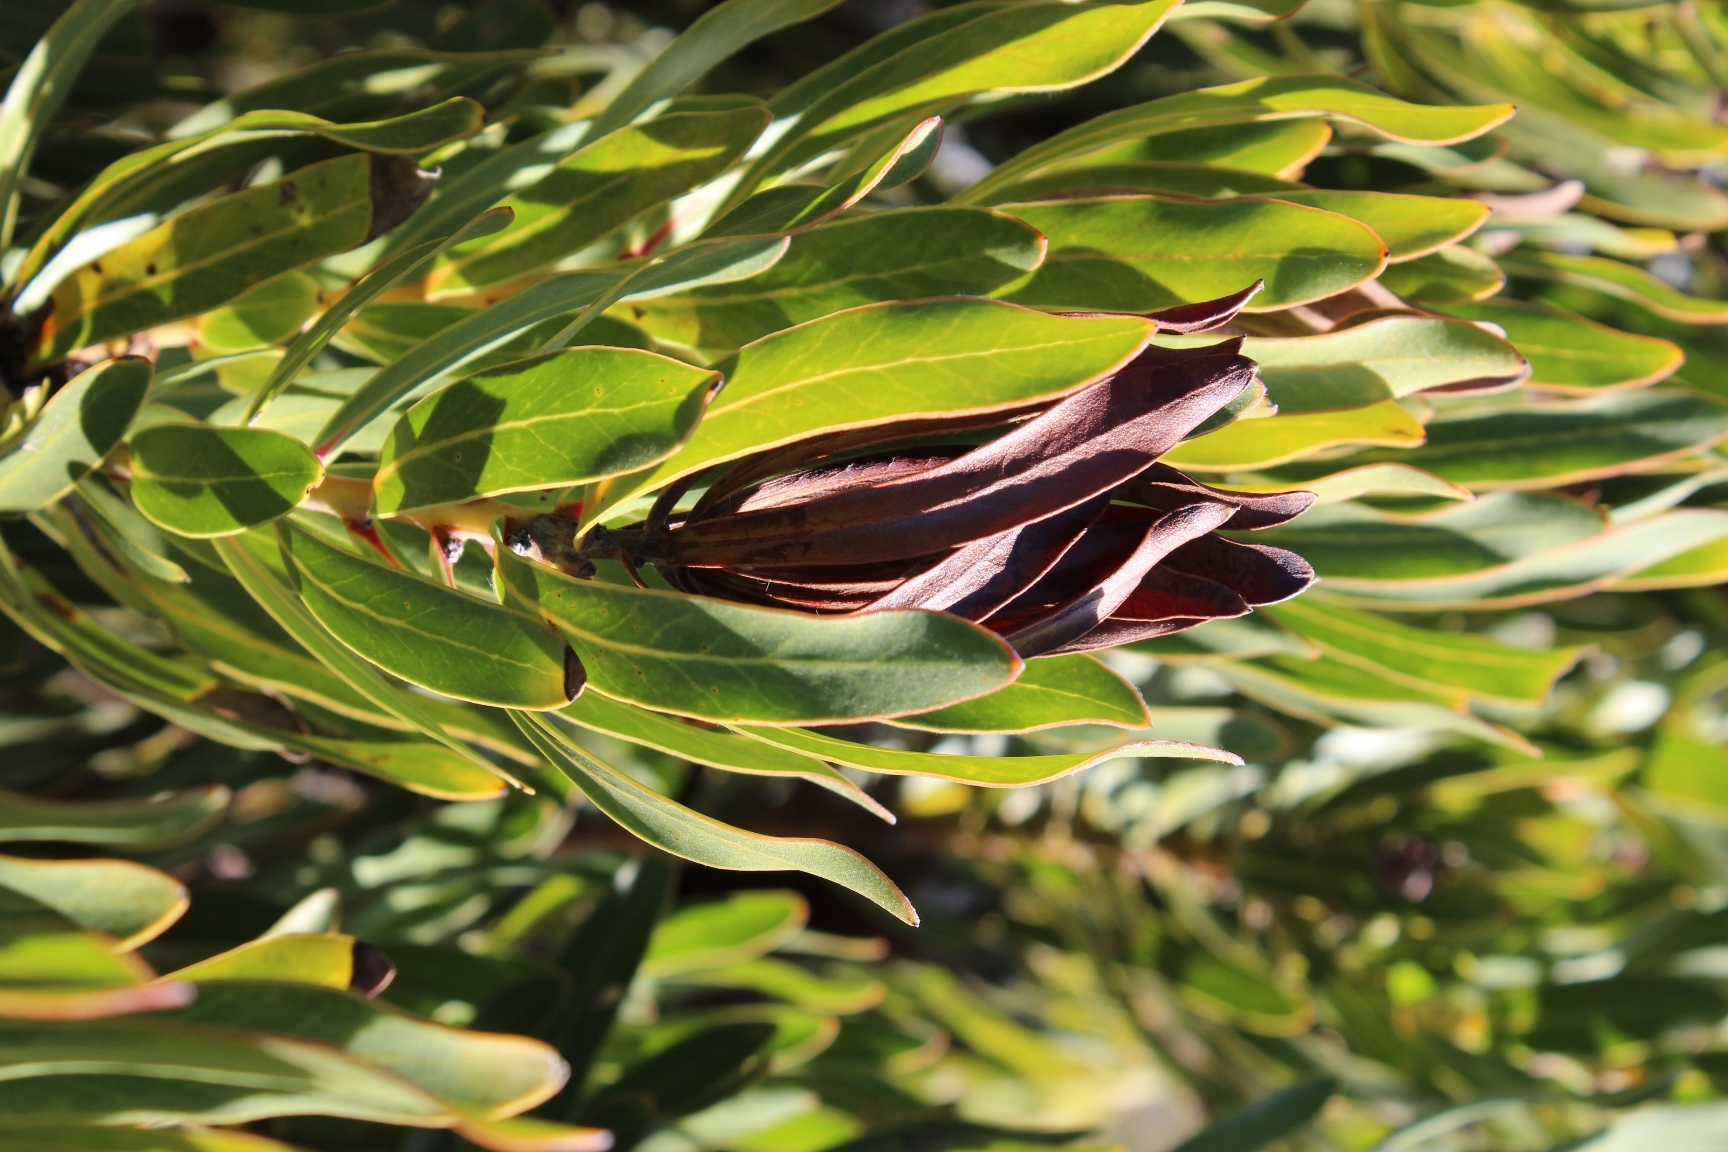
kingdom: Plantae
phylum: Tracheophyta
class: Magnoliopsida
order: Proteales
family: Proteaceae
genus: Protea
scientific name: Protea lepidocarpodendron
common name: Black-bearded protea
